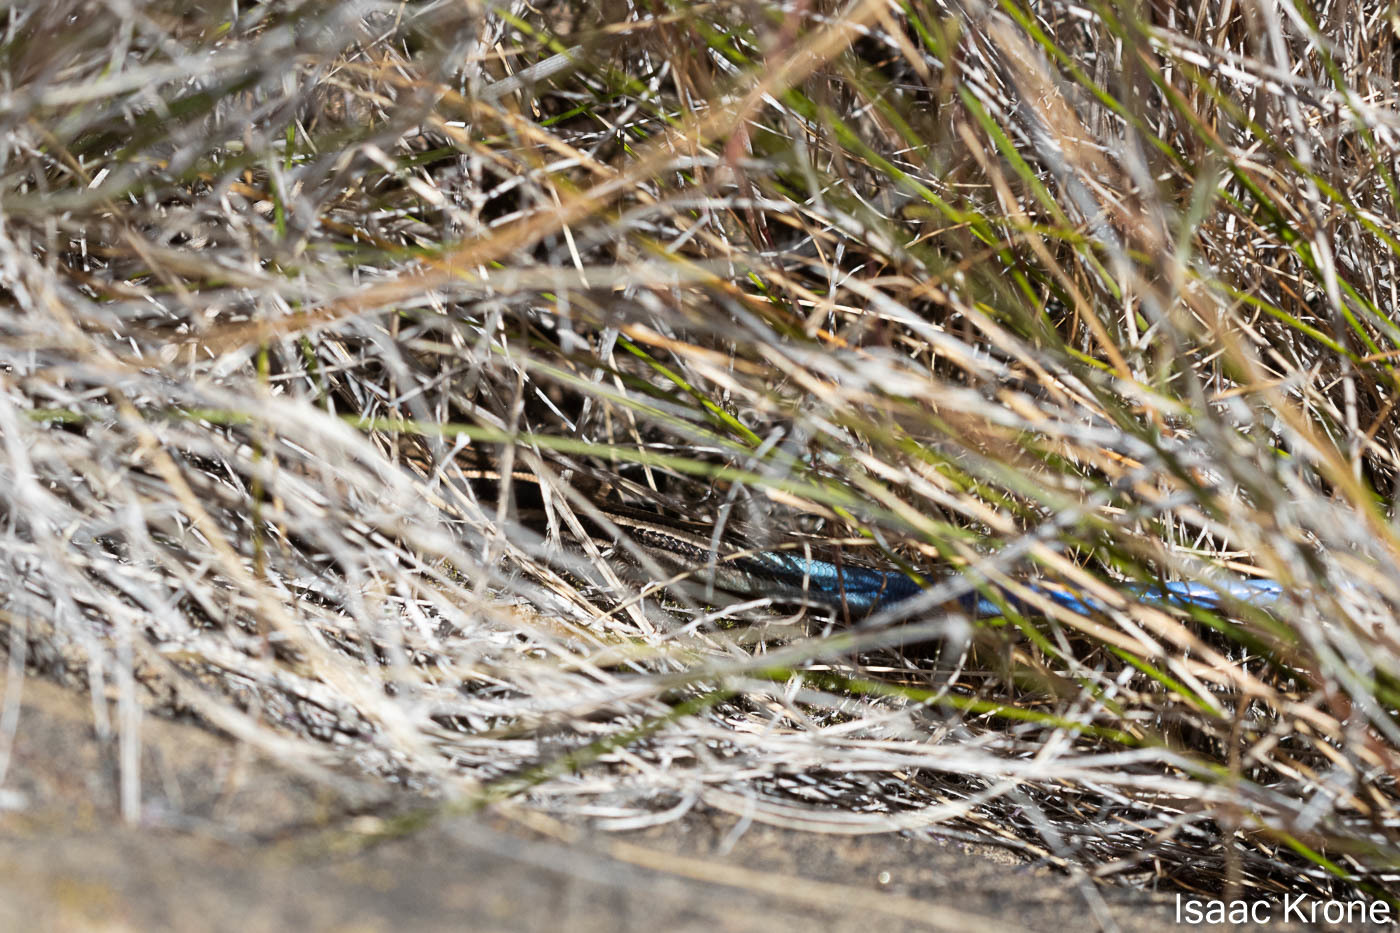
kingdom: Animalia
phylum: Chordata
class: Squamata
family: Scincidae
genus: Plestiodon
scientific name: Plestiodon skiltonianus
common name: Coronado island skink [interparietalis]
